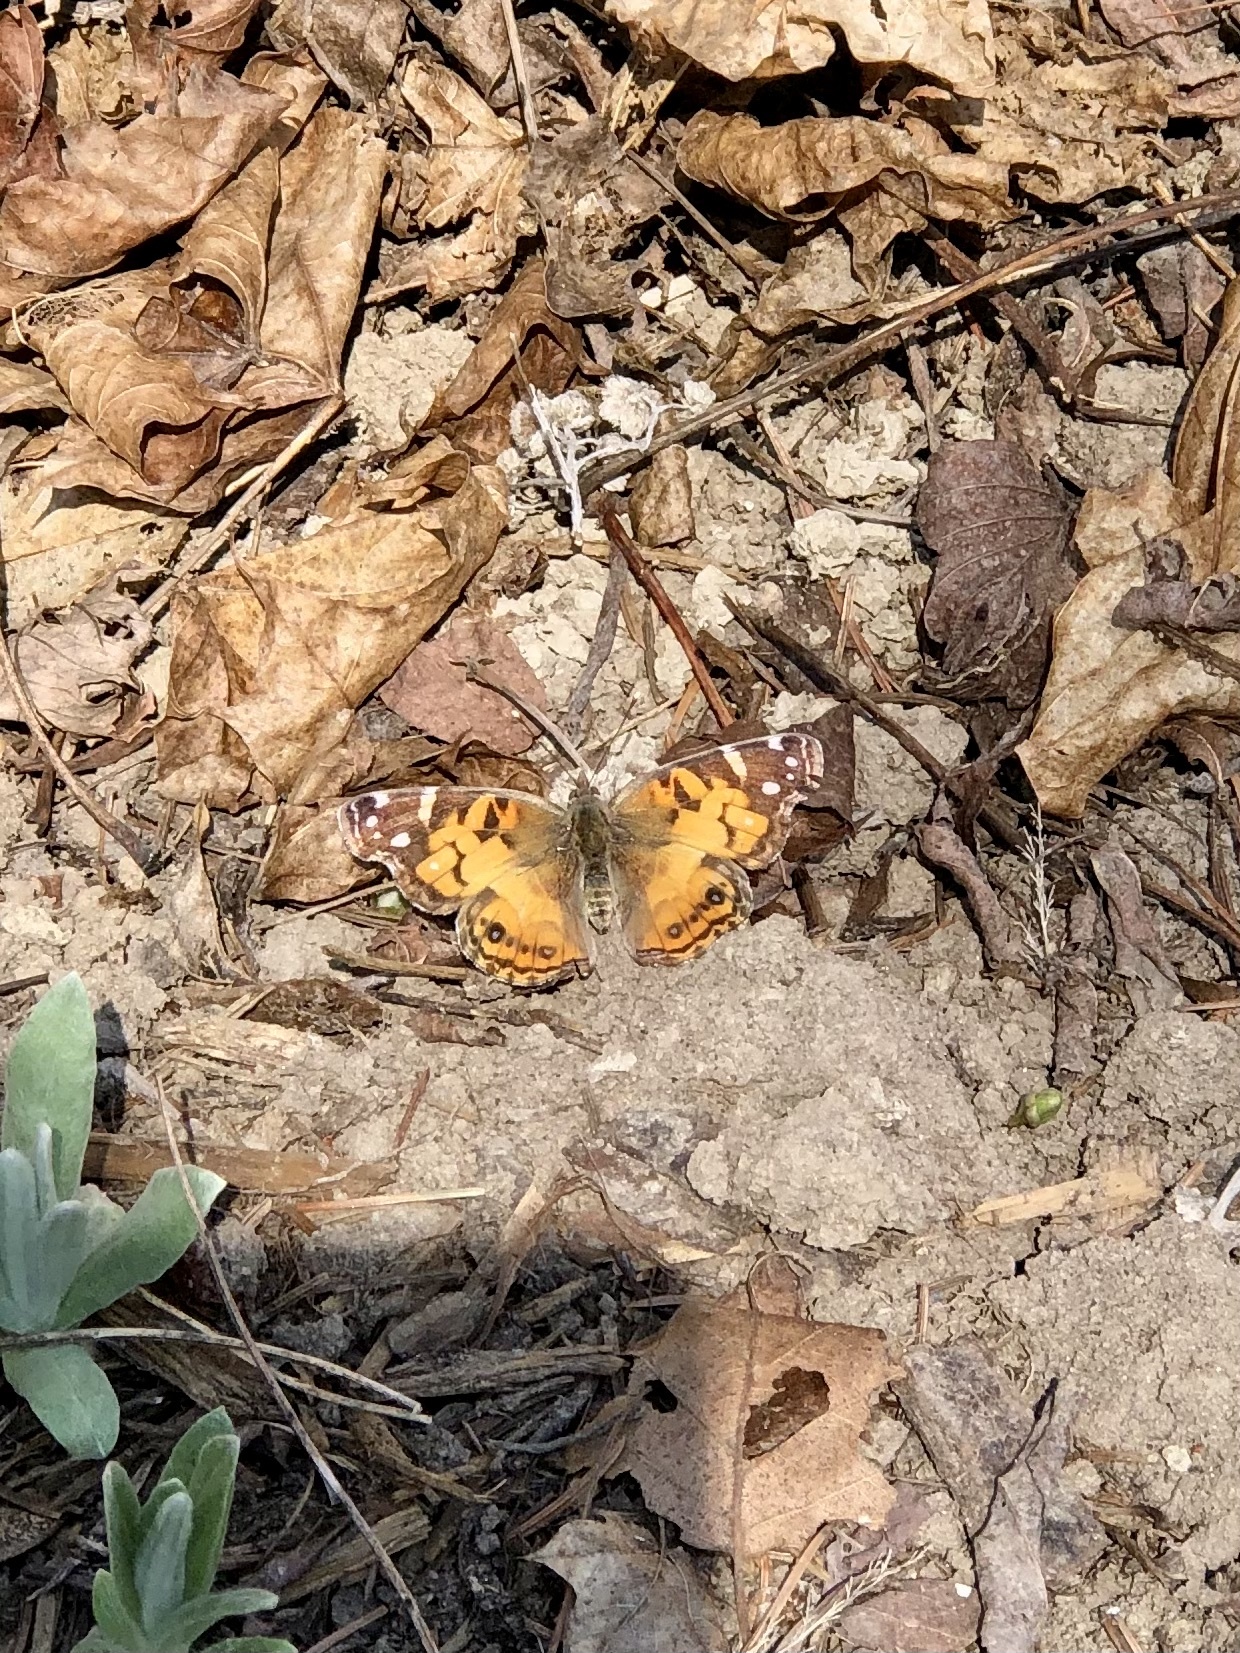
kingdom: Animalia
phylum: Arthropoda
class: Insecta
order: Lepidoptera
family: Nymphalidae
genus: Vanessa
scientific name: Vanessa virginiensis
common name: American lady
